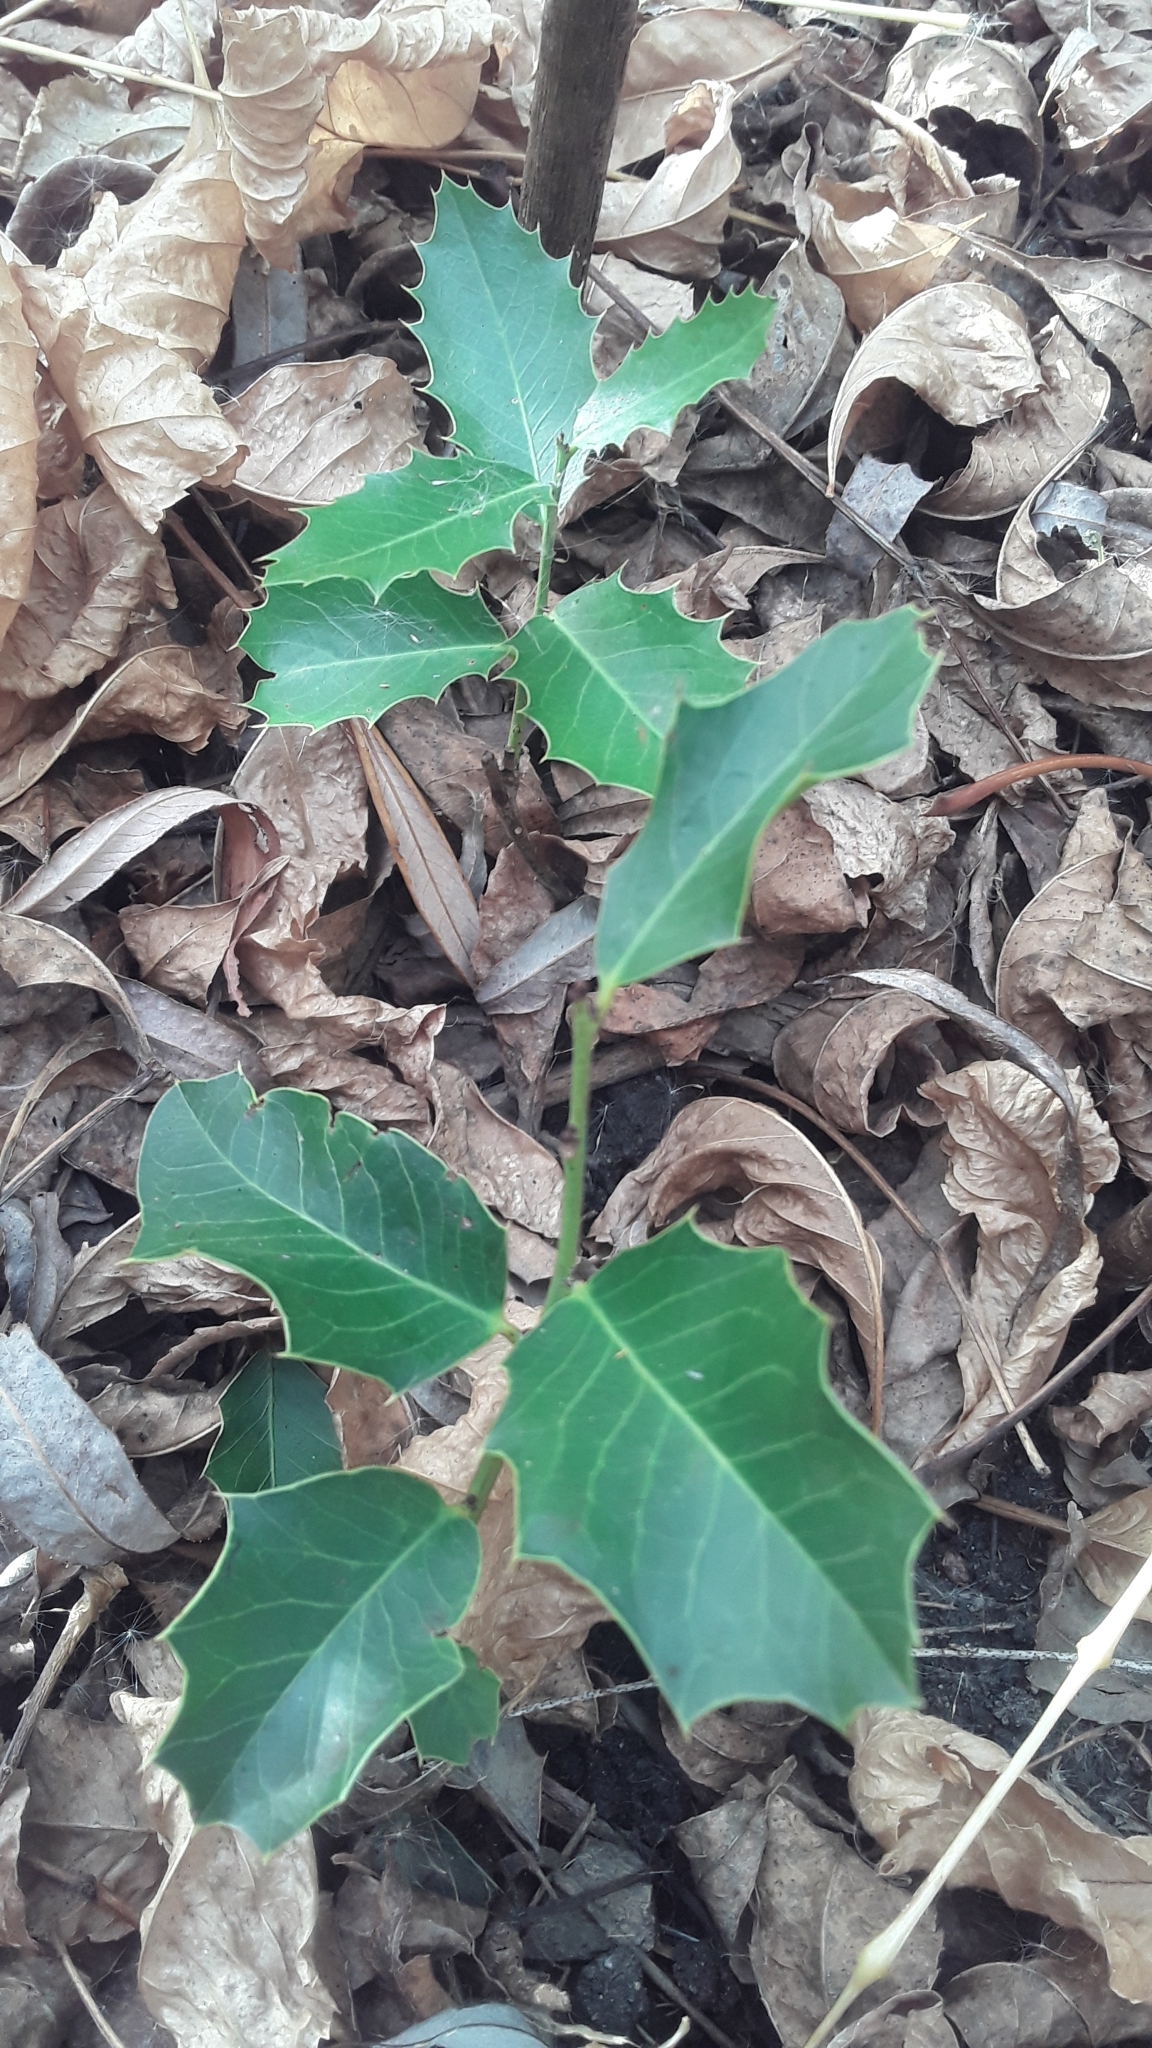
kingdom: Plantae
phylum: Tracheophyta
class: Magnoliopsida
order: Celastrales
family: Celastraceae
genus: Monteverdia
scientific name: Monteverdia
